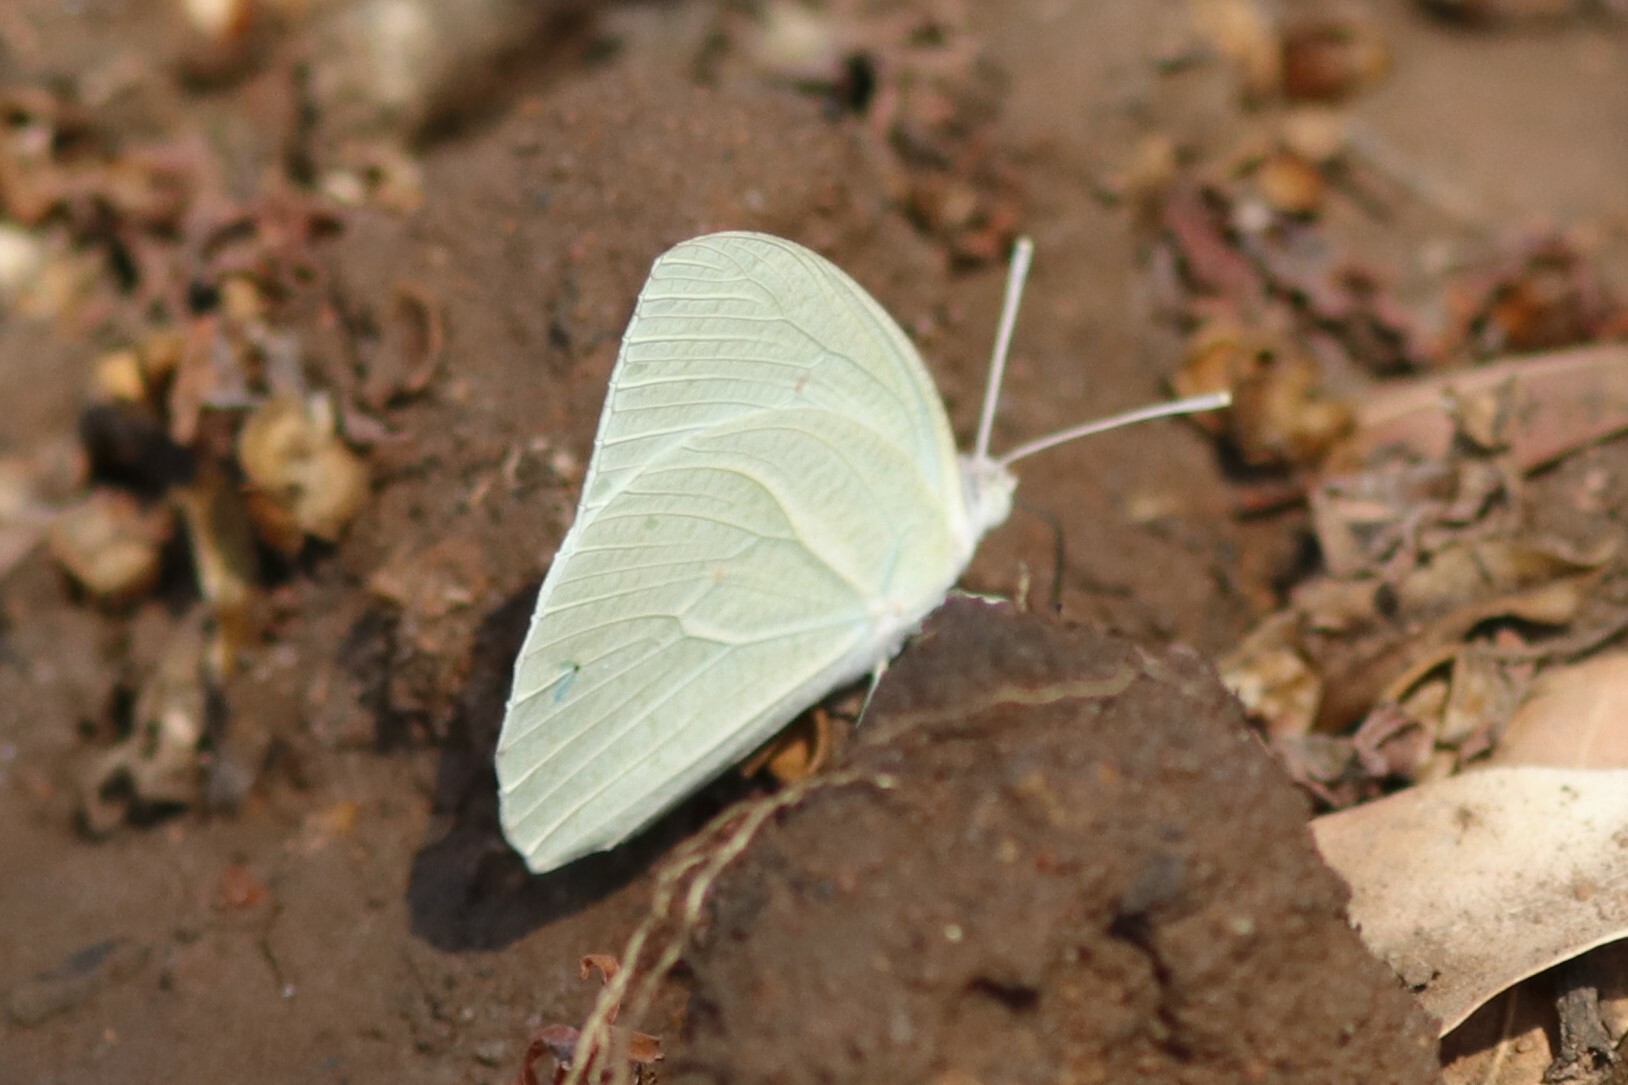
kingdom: Animalia
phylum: Arthropoda
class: Insecta
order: Lepidoptera
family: Pieridae
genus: Catopsilia
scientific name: Catopsilia florella
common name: African migrant
